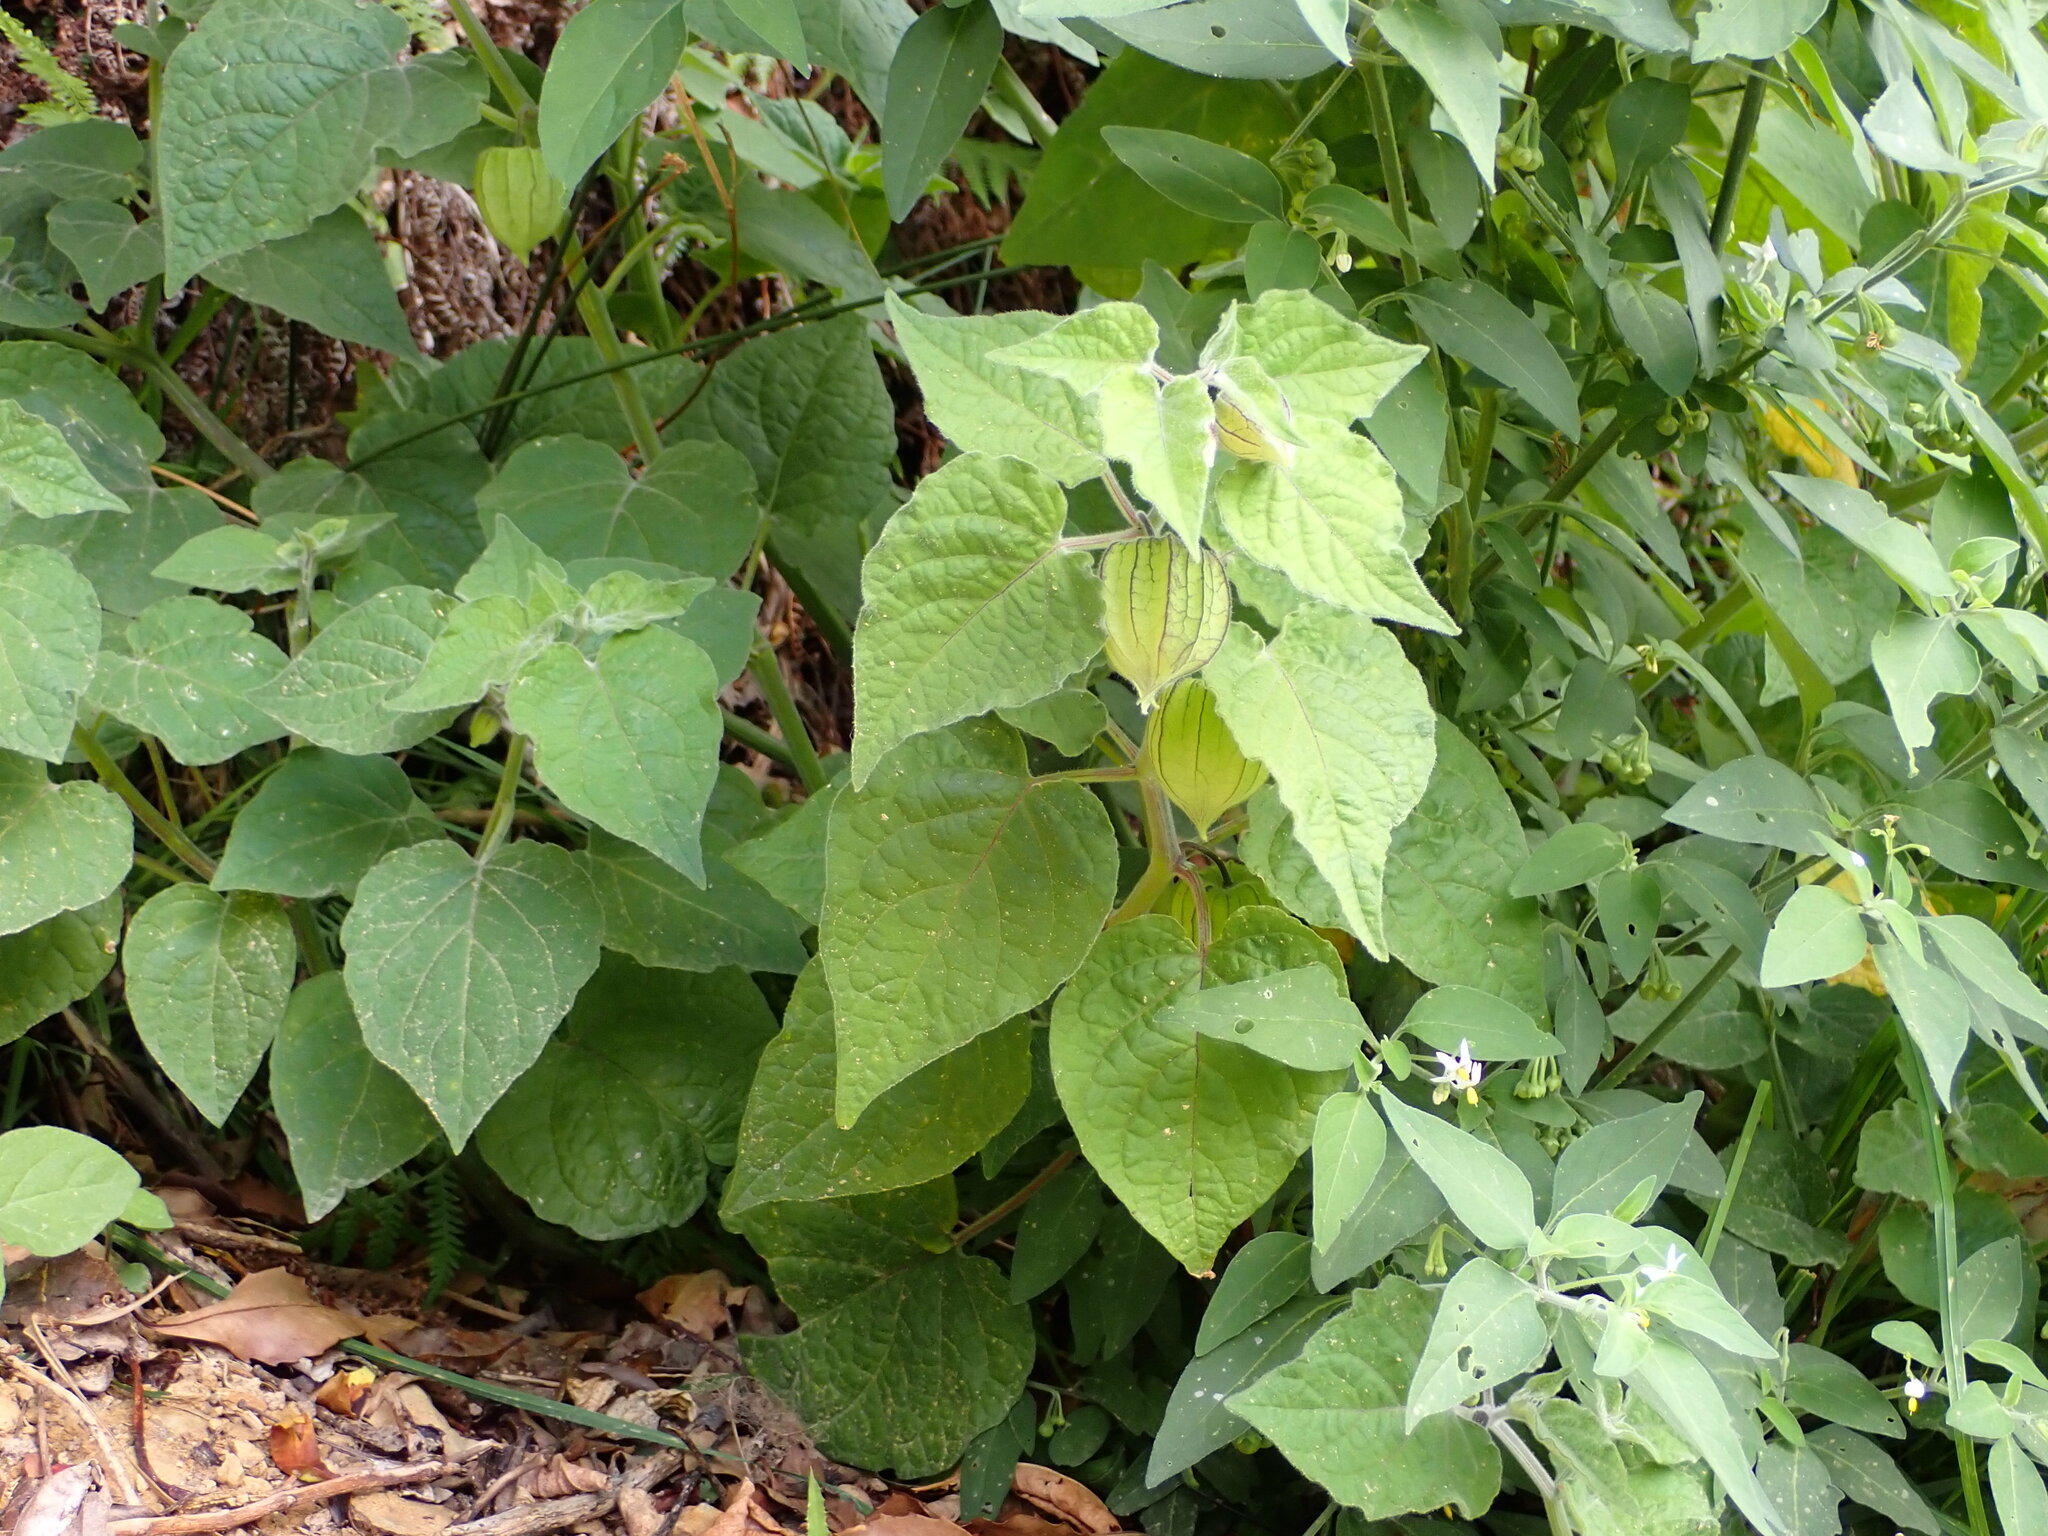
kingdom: Plantae
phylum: Tracheophyta
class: Magnoliopsida
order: Solanales
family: Solanaceae
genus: Physalis
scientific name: Physalis peruviana
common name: Cape-gooseberry
